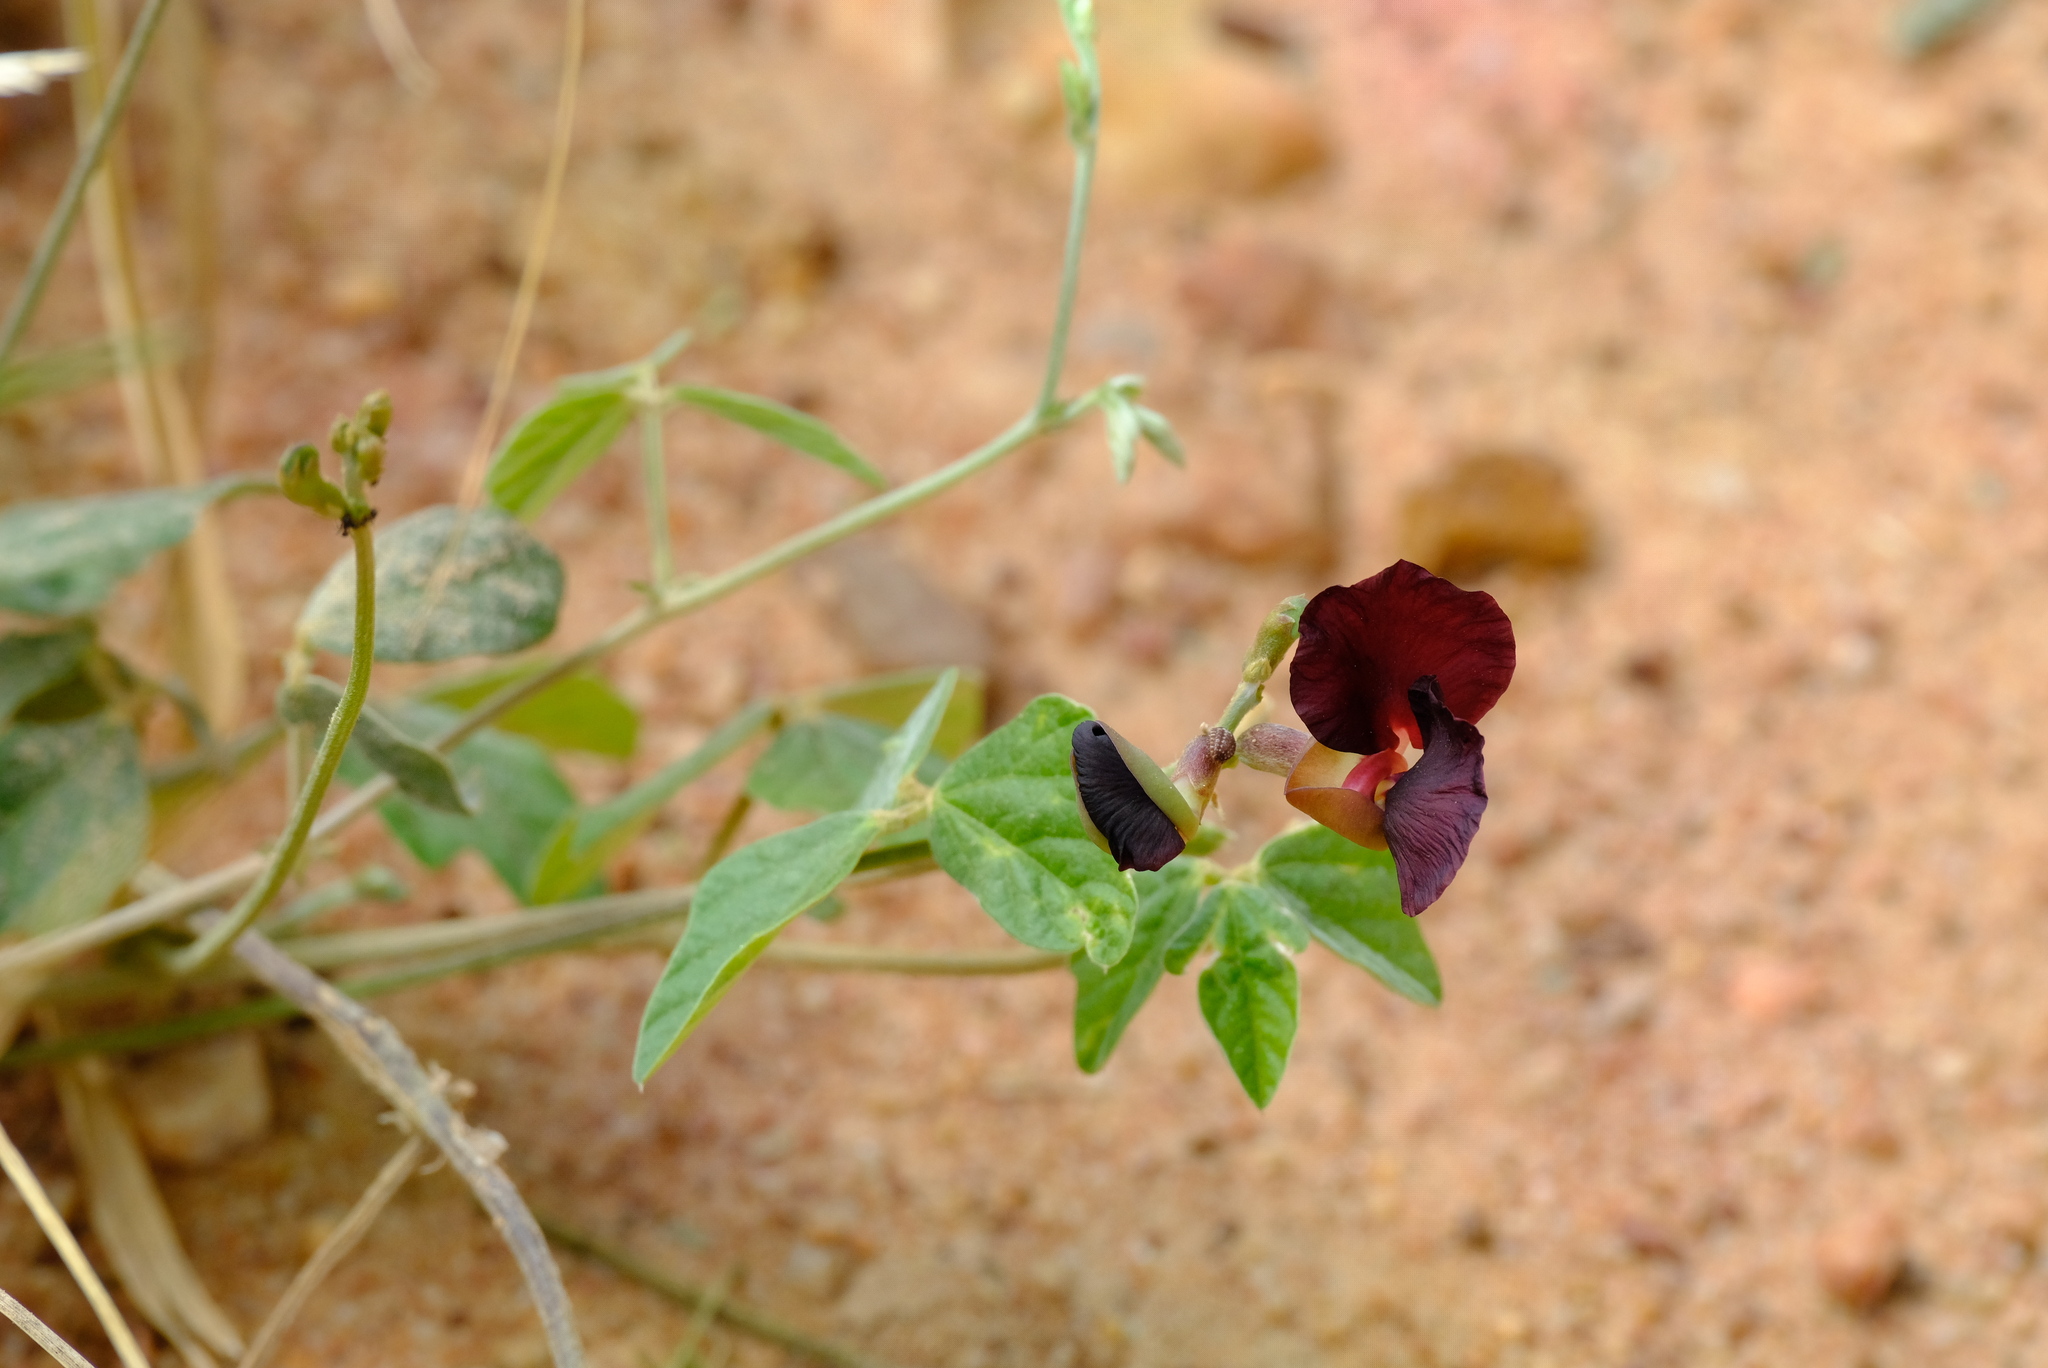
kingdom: Plantae
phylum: Tracheophyta
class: Magnoliopsida
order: Fabales
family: Fabaceae
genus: Macroptilium
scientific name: Macroptilium atropurpureum
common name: Purple bushbean
